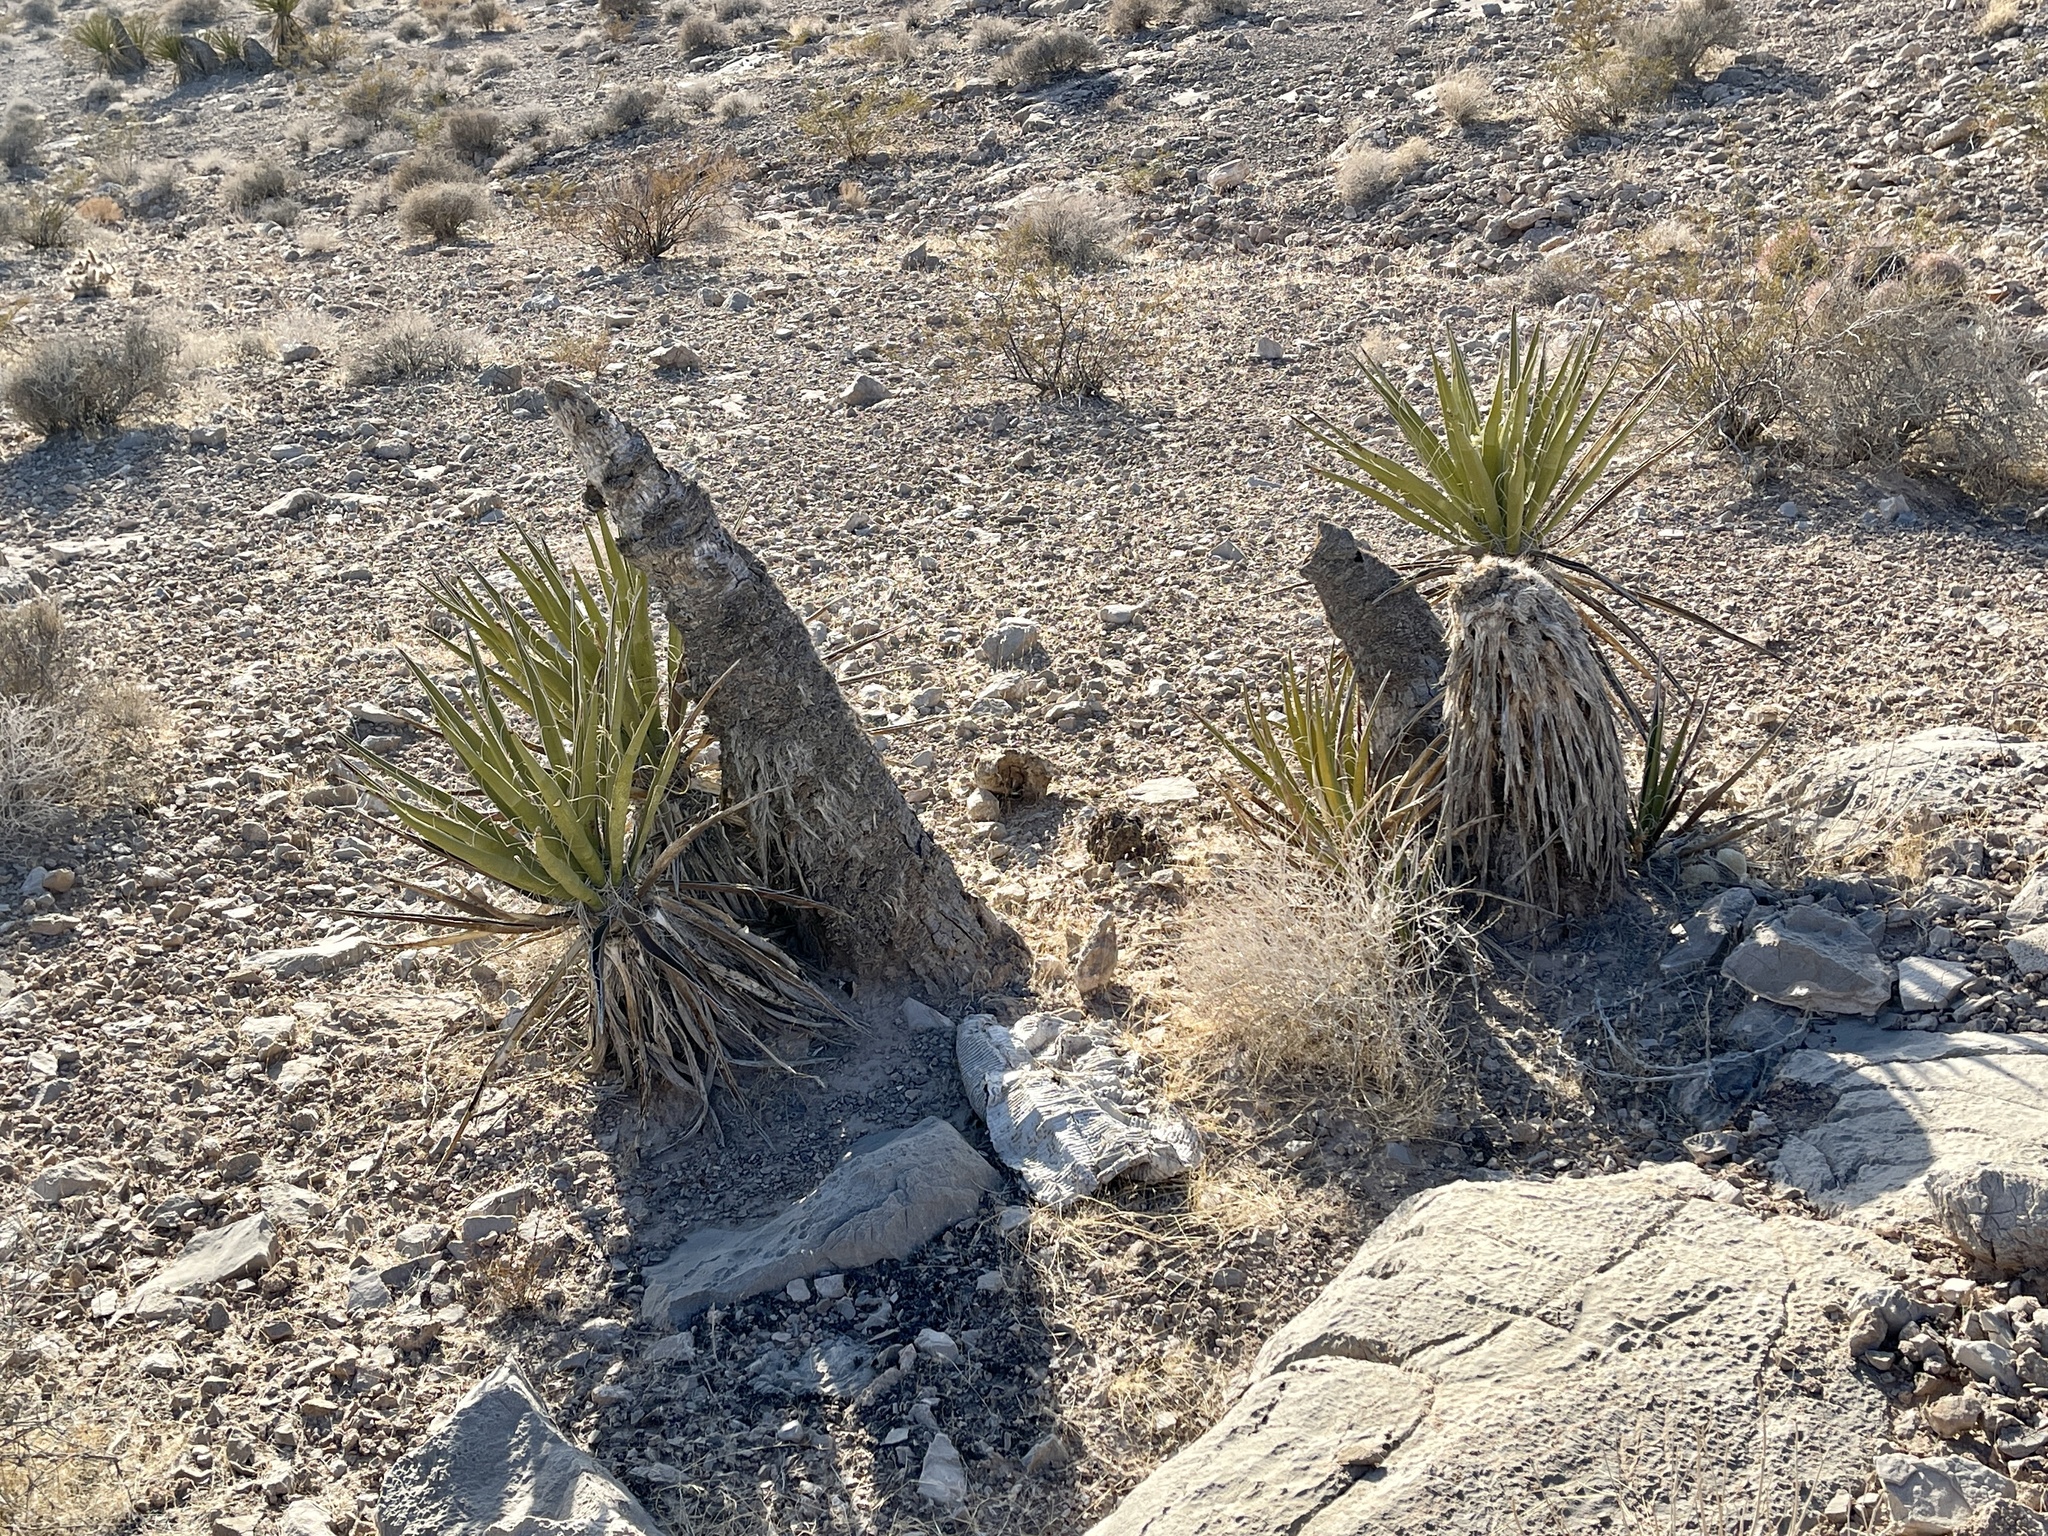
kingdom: Plantae
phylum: Tracheophyta
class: Liliopsida
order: Asparagales
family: Asparagaceae
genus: Yucca
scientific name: Yucca schidigera
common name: Mojave yucca
